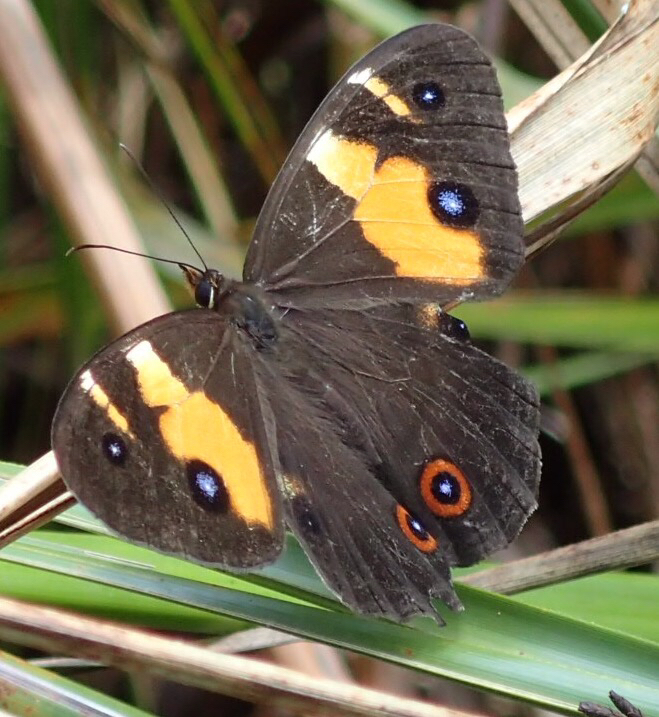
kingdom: Animalia
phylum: Arthropoda
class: Insecta
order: Lepidoptera
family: Nymphalidae
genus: Tisiphone
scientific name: Tisiphone abeona
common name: Swordgrass brown
